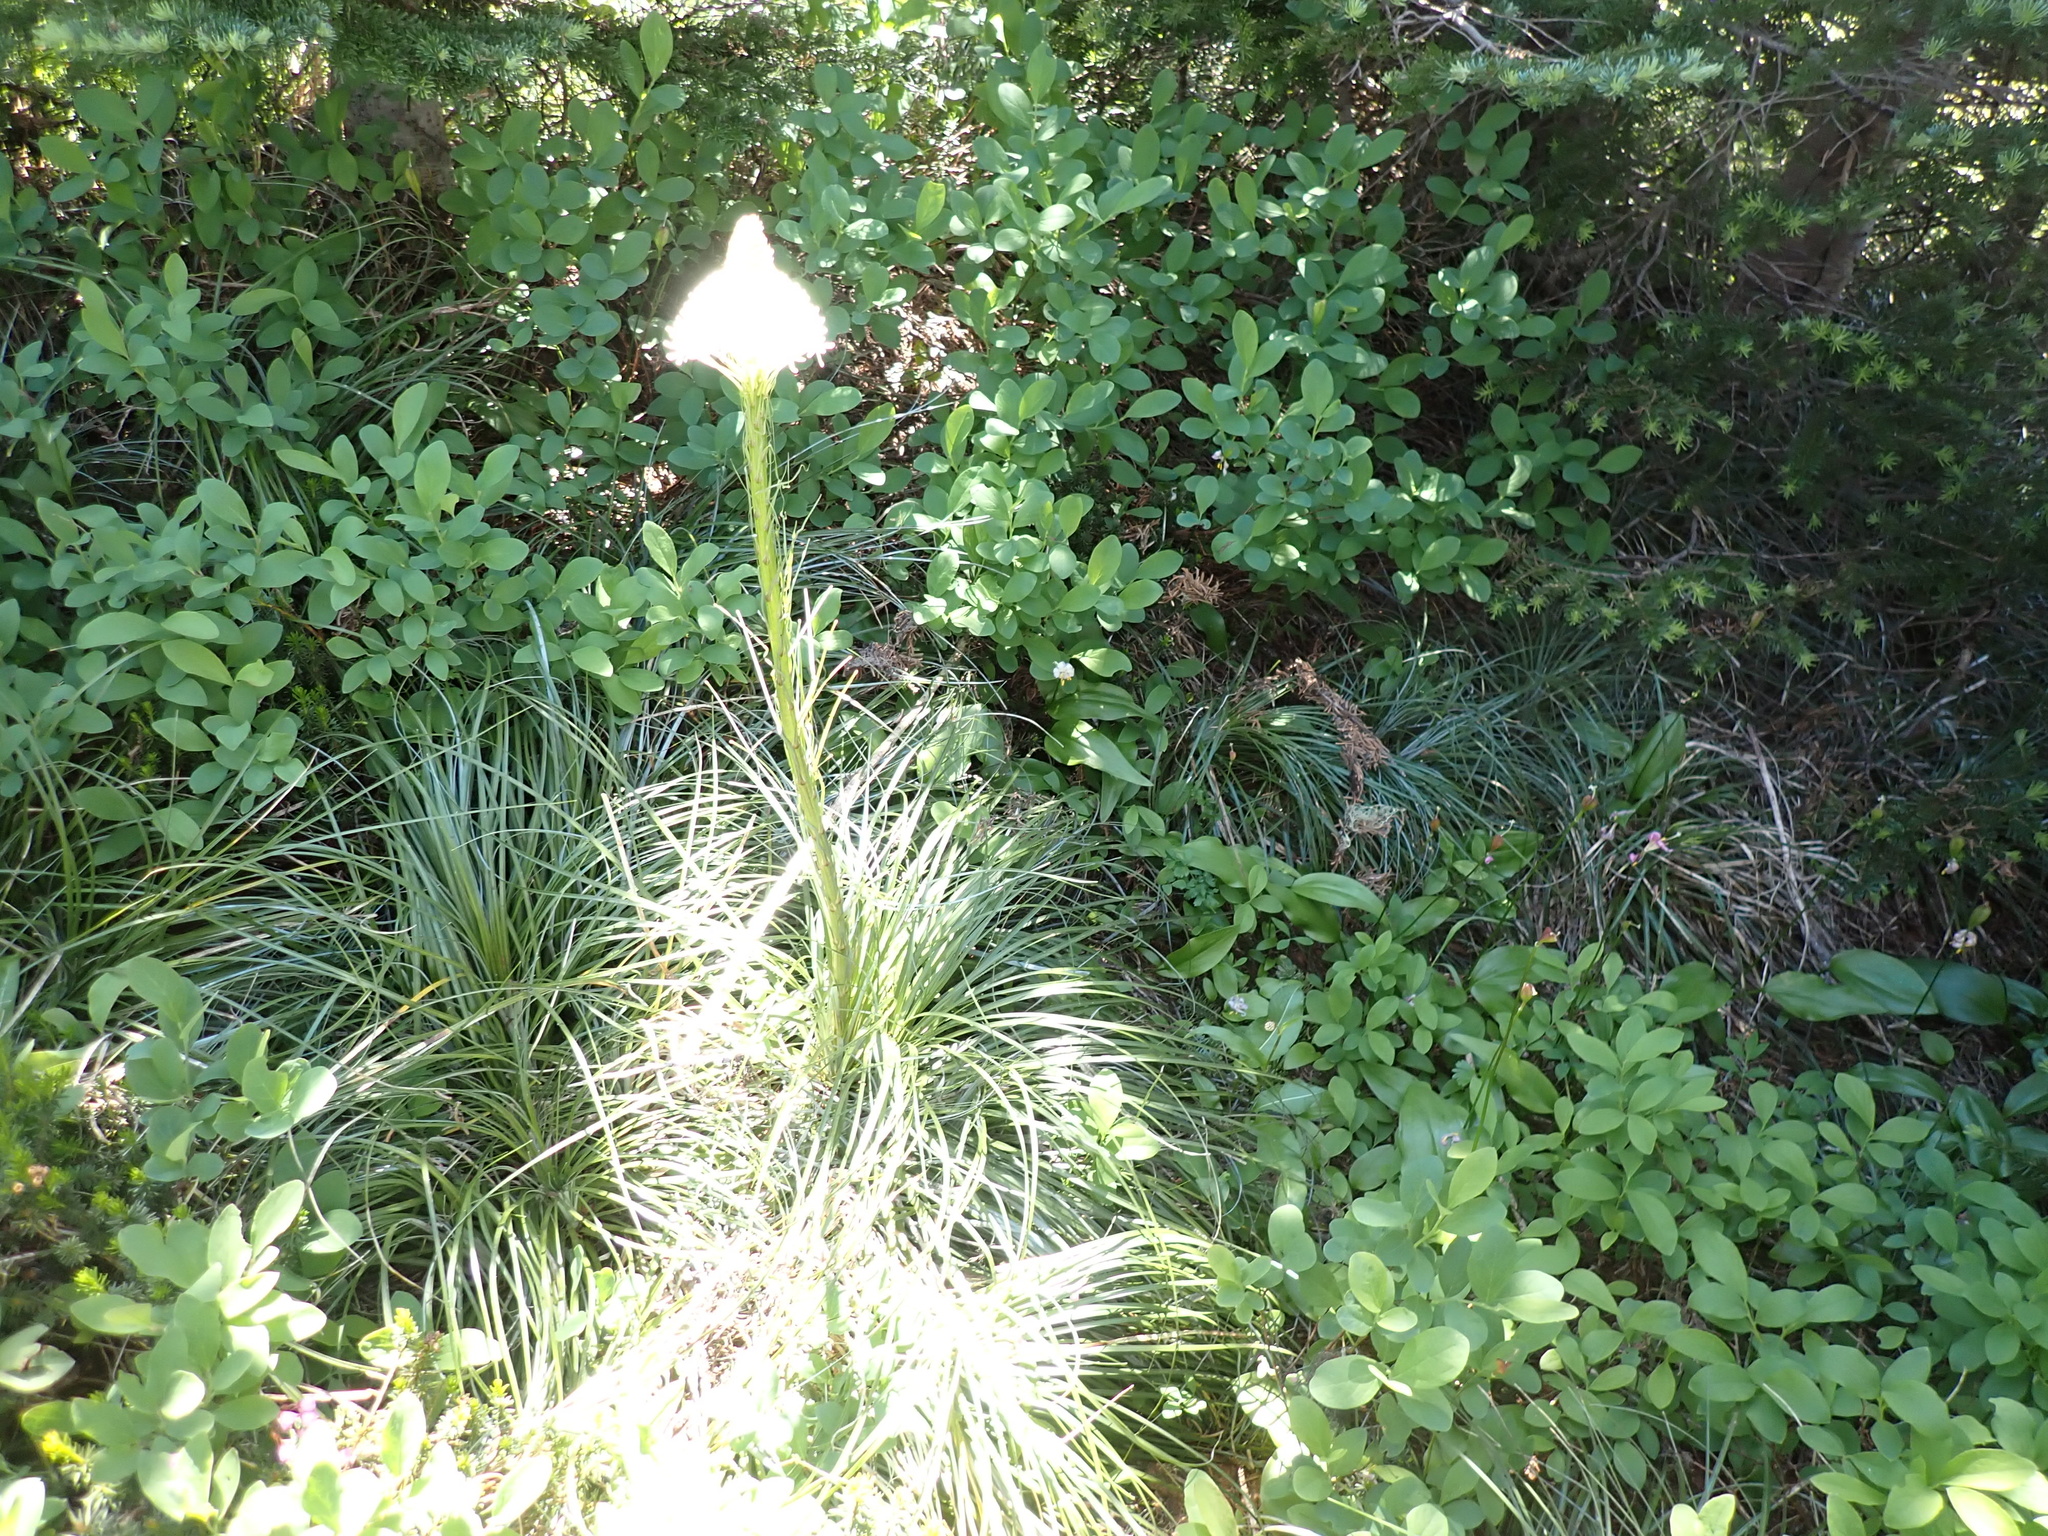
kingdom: Plantae
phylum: Tracheophyta
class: Liliopsida
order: Liliales
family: Melanthiaceae
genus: Xerophyllum
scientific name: Xerophyllum tenax
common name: Bear-grass
